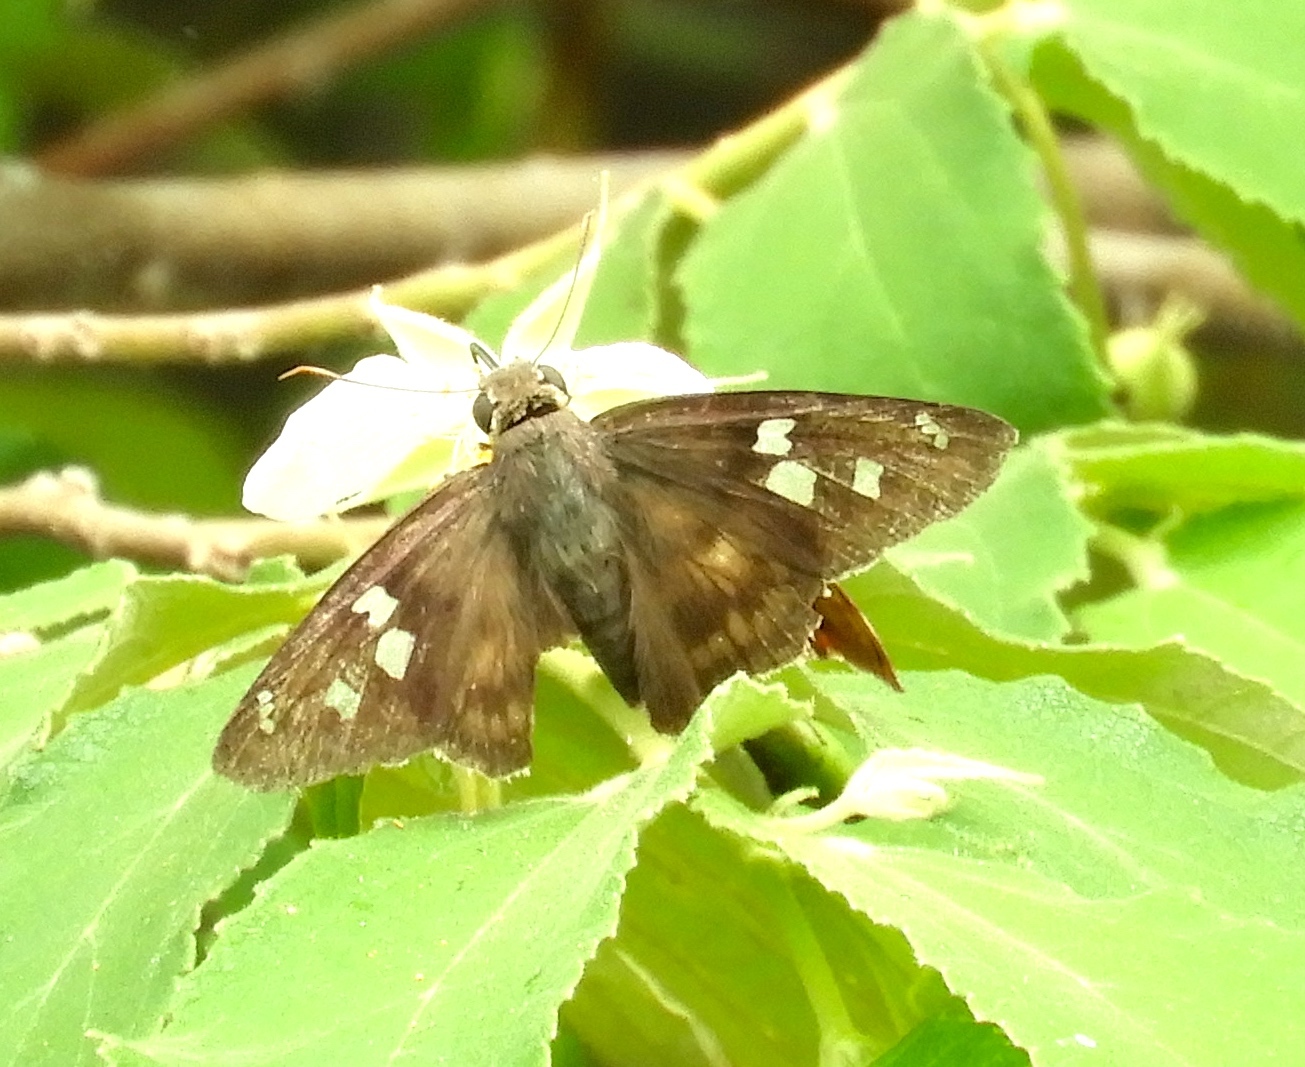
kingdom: Animalia
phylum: Arthropoda
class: Insecta
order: Lepidoptera
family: Hesperiidae
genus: Polygonus
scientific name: Polygonus
